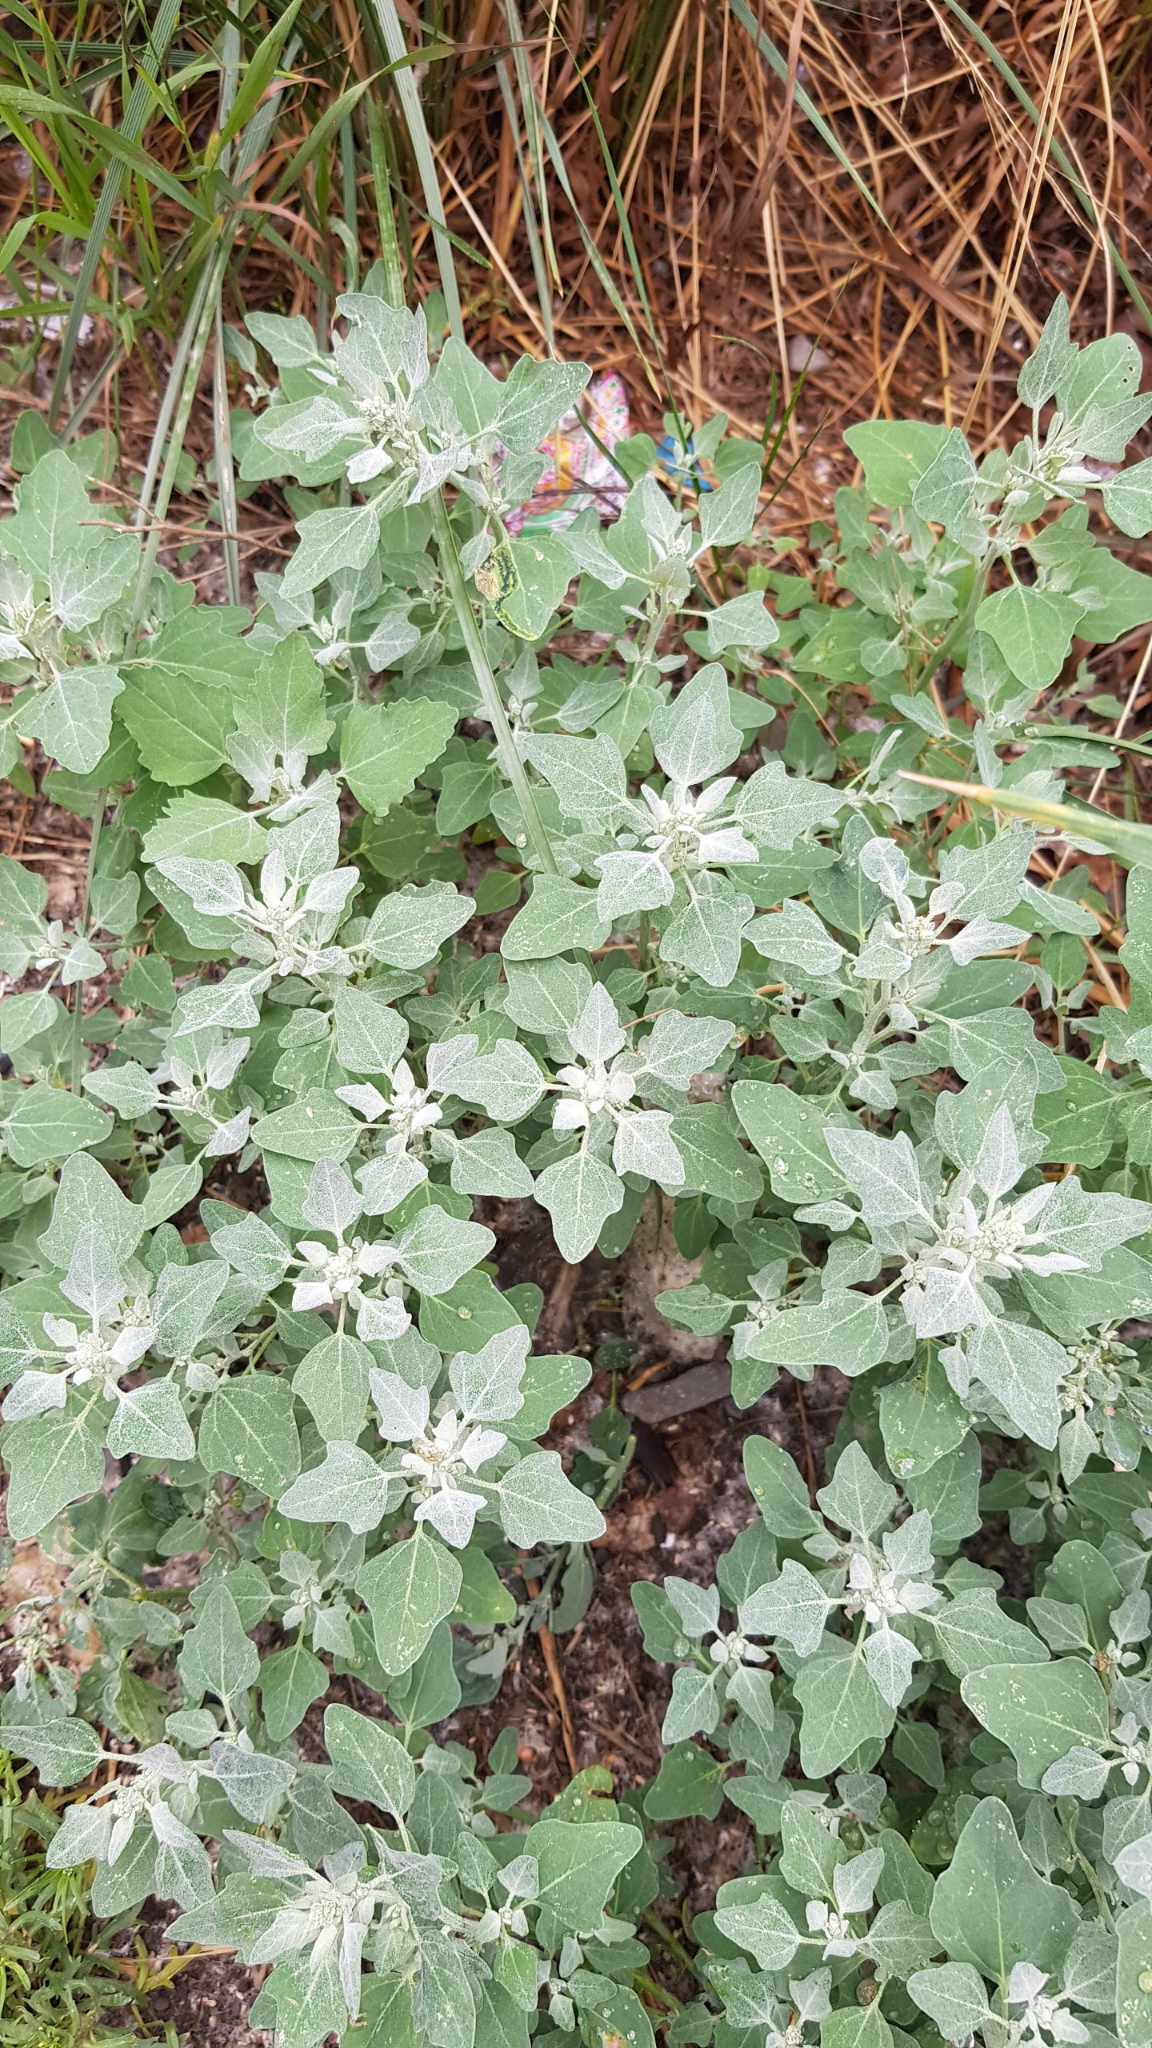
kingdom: Plantae
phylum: Tracheophyta
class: Magnoliopsida
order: Caryophyllales
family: Amaranthaceae
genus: Chenopodium
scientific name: Chenopodium album
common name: Fat-hen
